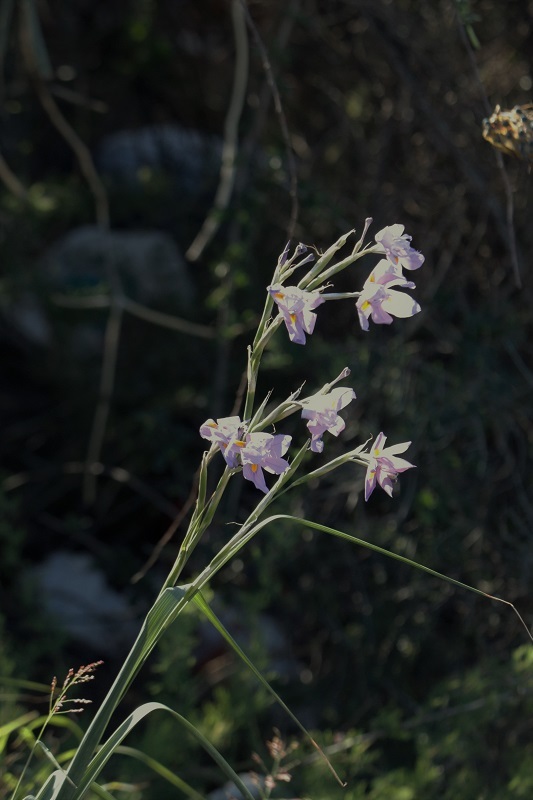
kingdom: Plantae
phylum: Tracheophyta
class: Liliopsida
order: Asparagales
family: Iridaceae
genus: Moraea
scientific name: Moraea polystachya
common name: Blue-tulip
